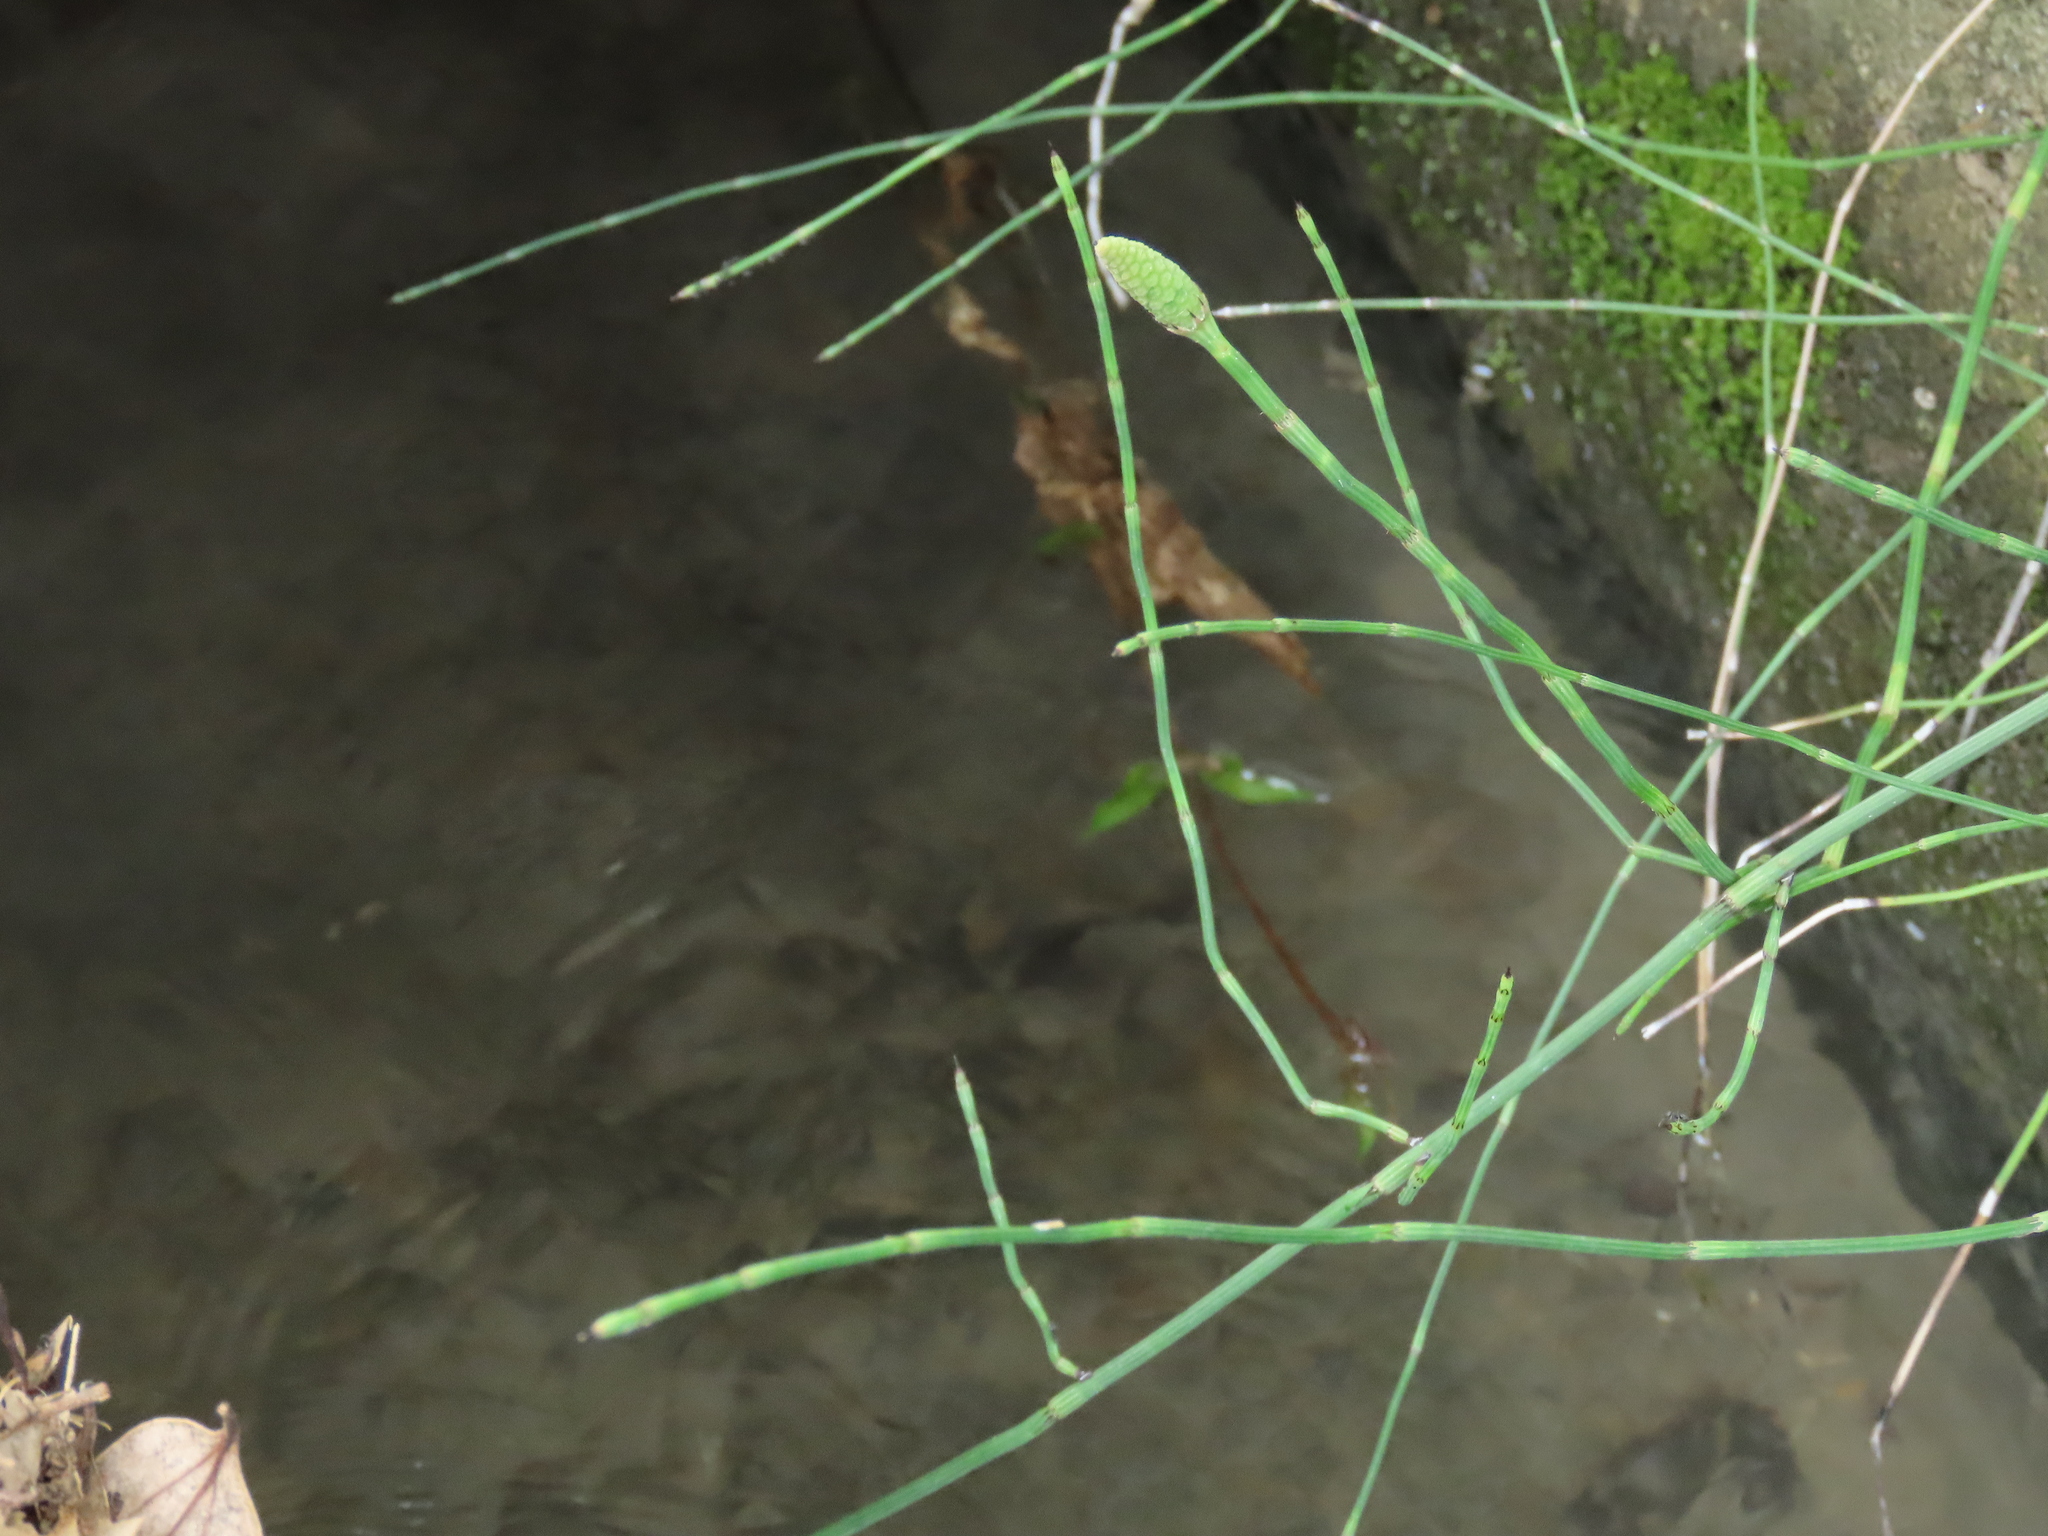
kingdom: Plantae
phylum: Tracheophyta
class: Polypodiopsida
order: Equisetales
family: Equisetaceae
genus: Equisetum
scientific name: Equisetum ramosissimum
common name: Branched horsetail
